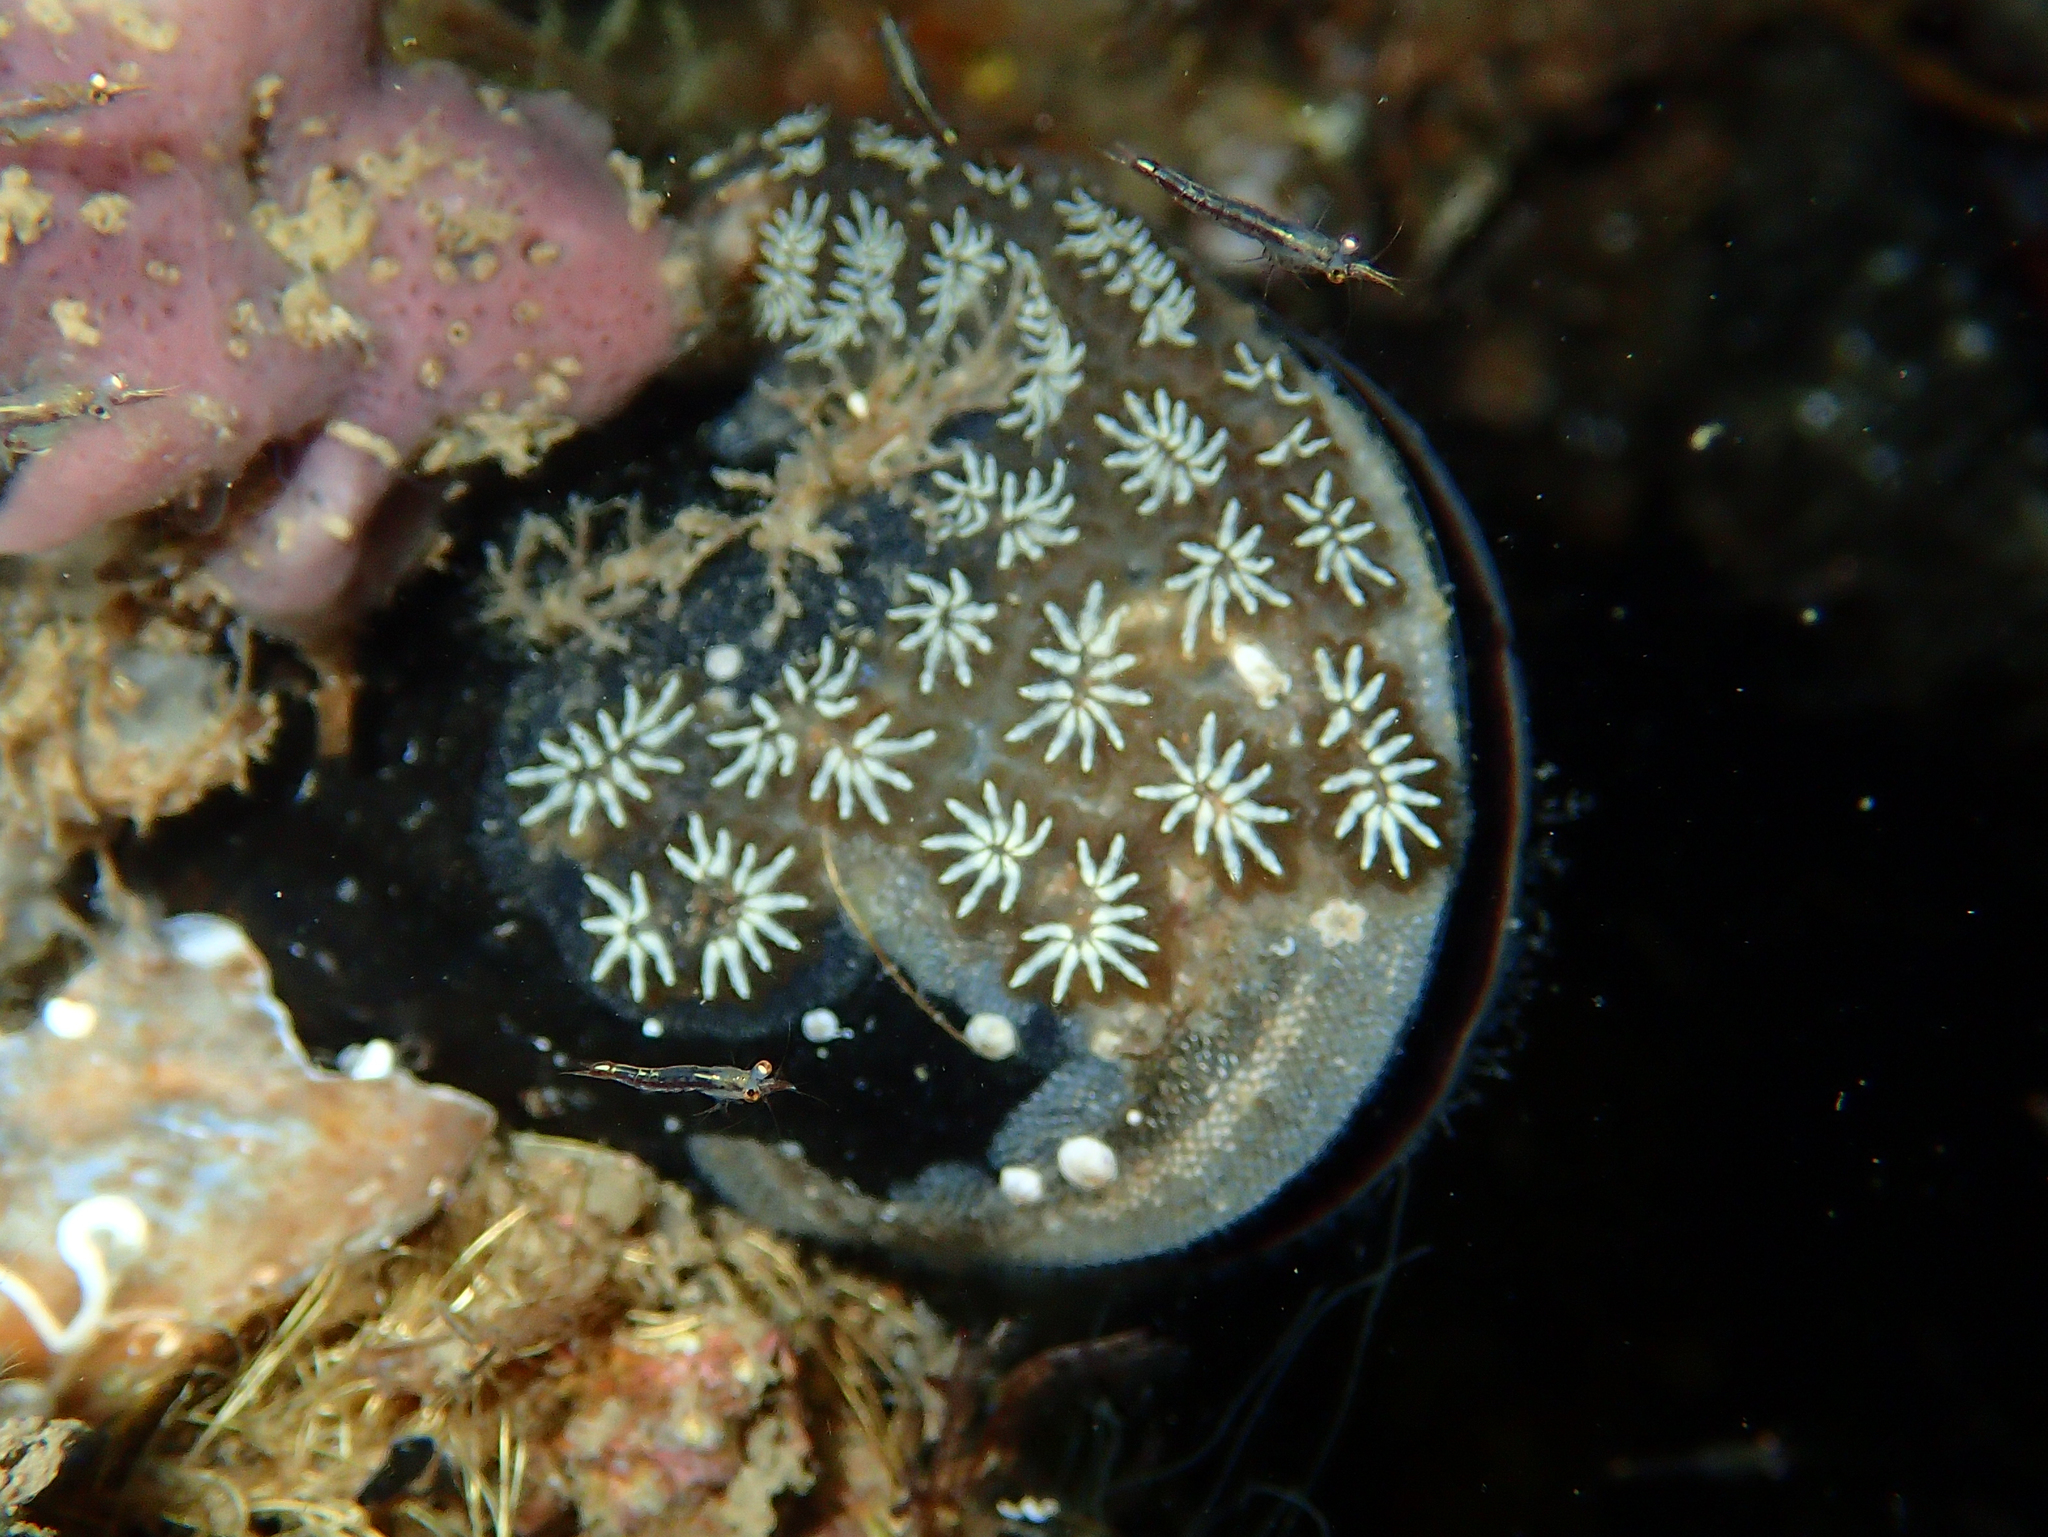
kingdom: Animalia
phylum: Chordata
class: Ascidiacea
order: Stolidobranchia
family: Styelidae
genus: Botryllus
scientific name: Botryllus schlosseri
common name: Golden star tunicate
